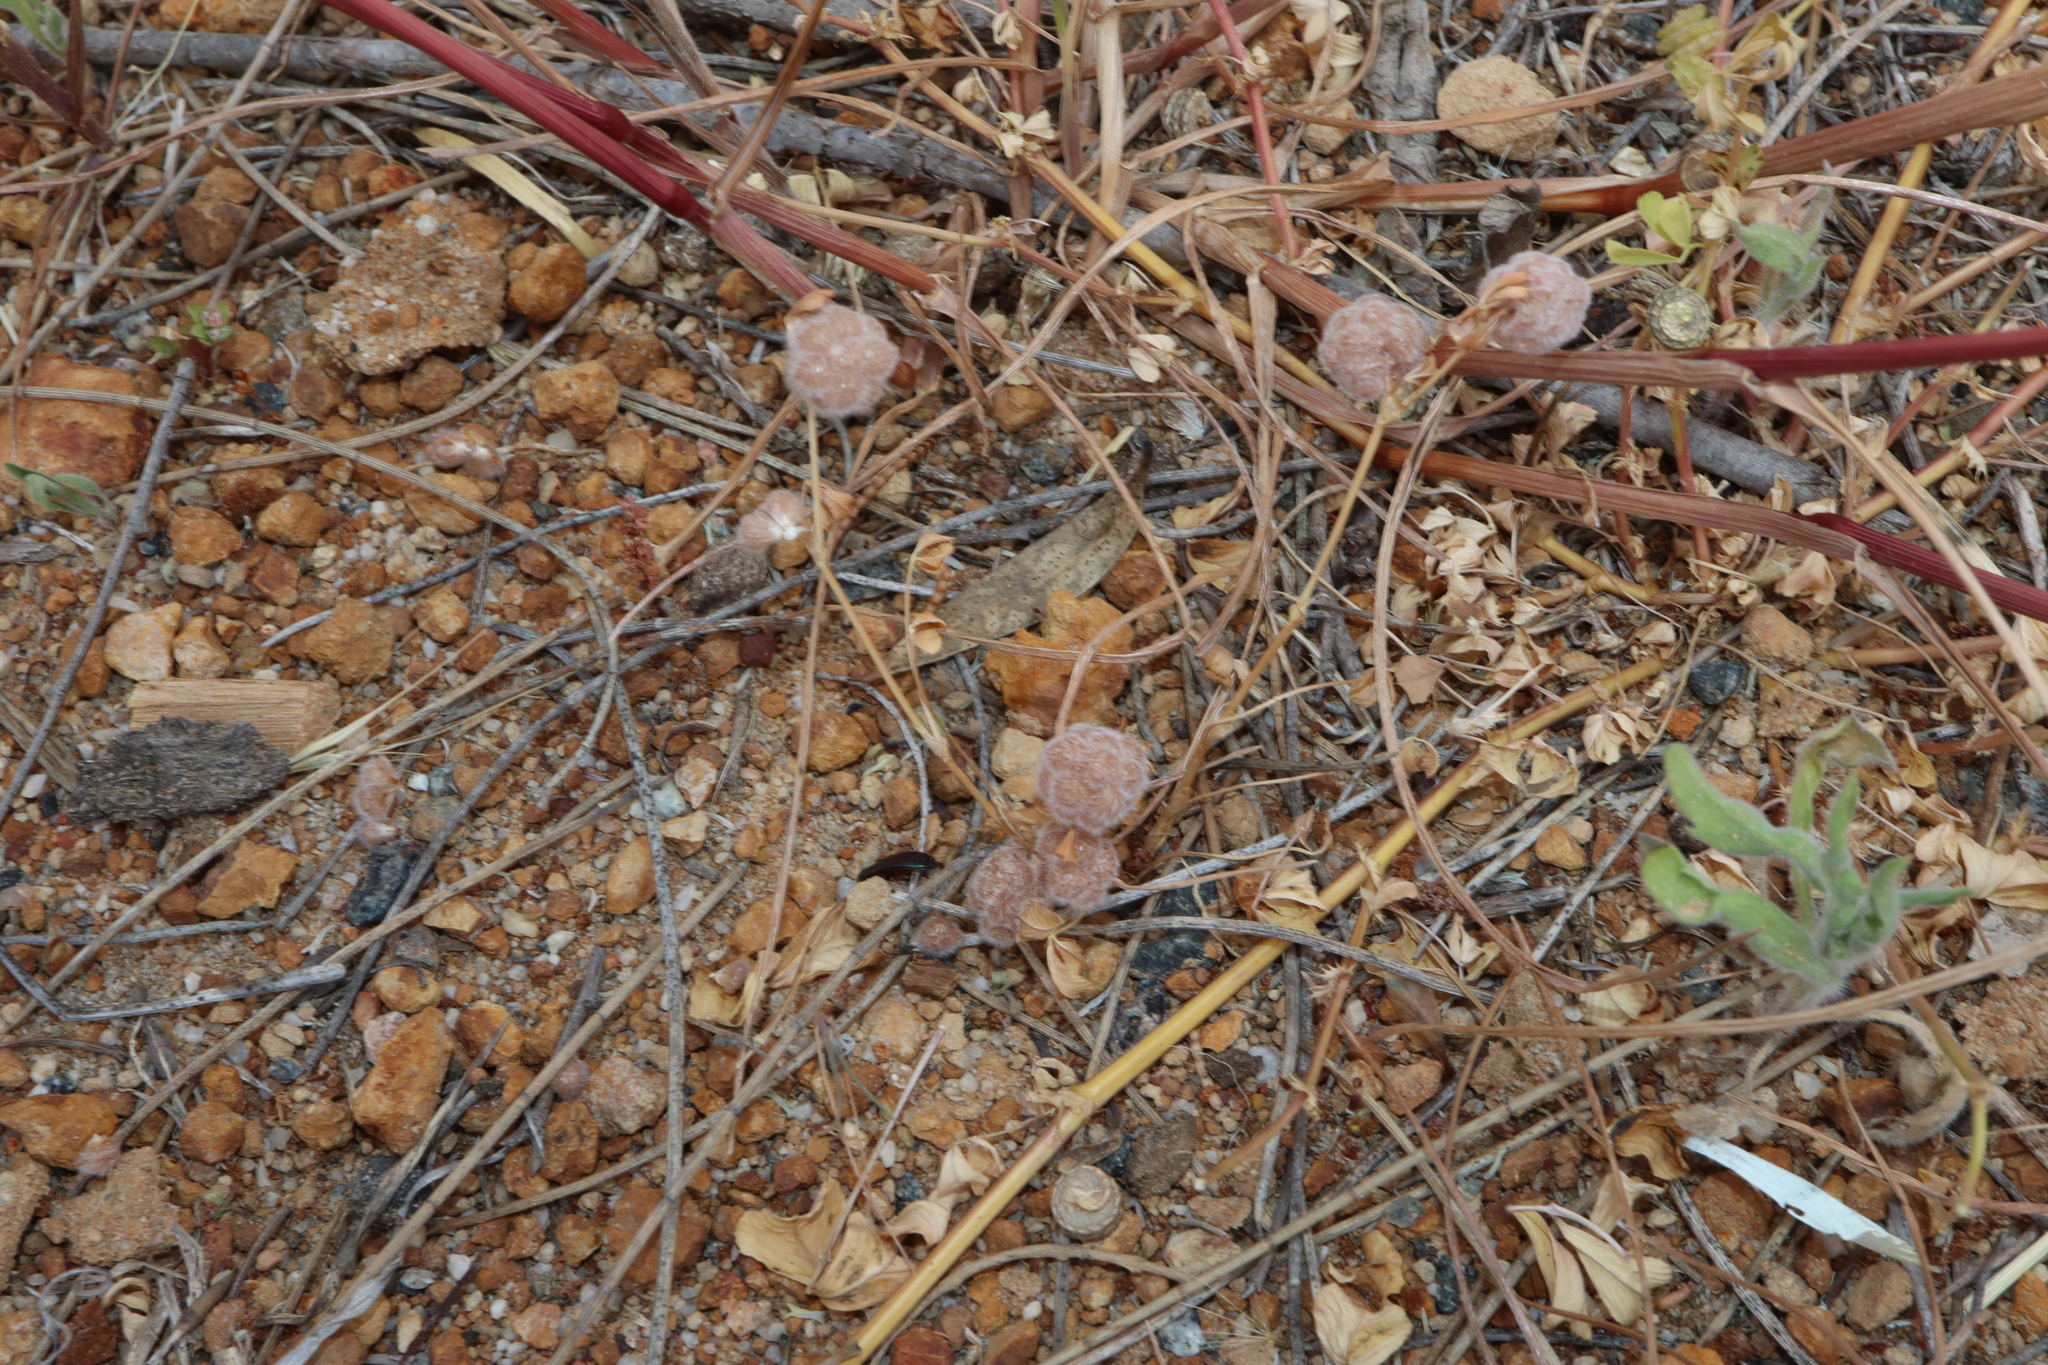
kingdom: Plantae
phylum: Tracheophyta
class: Magnoliopsida
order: Fabales
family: Fabaceae
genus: Trifolium
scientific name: Trifolium tomentosum
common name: Woolly clover
